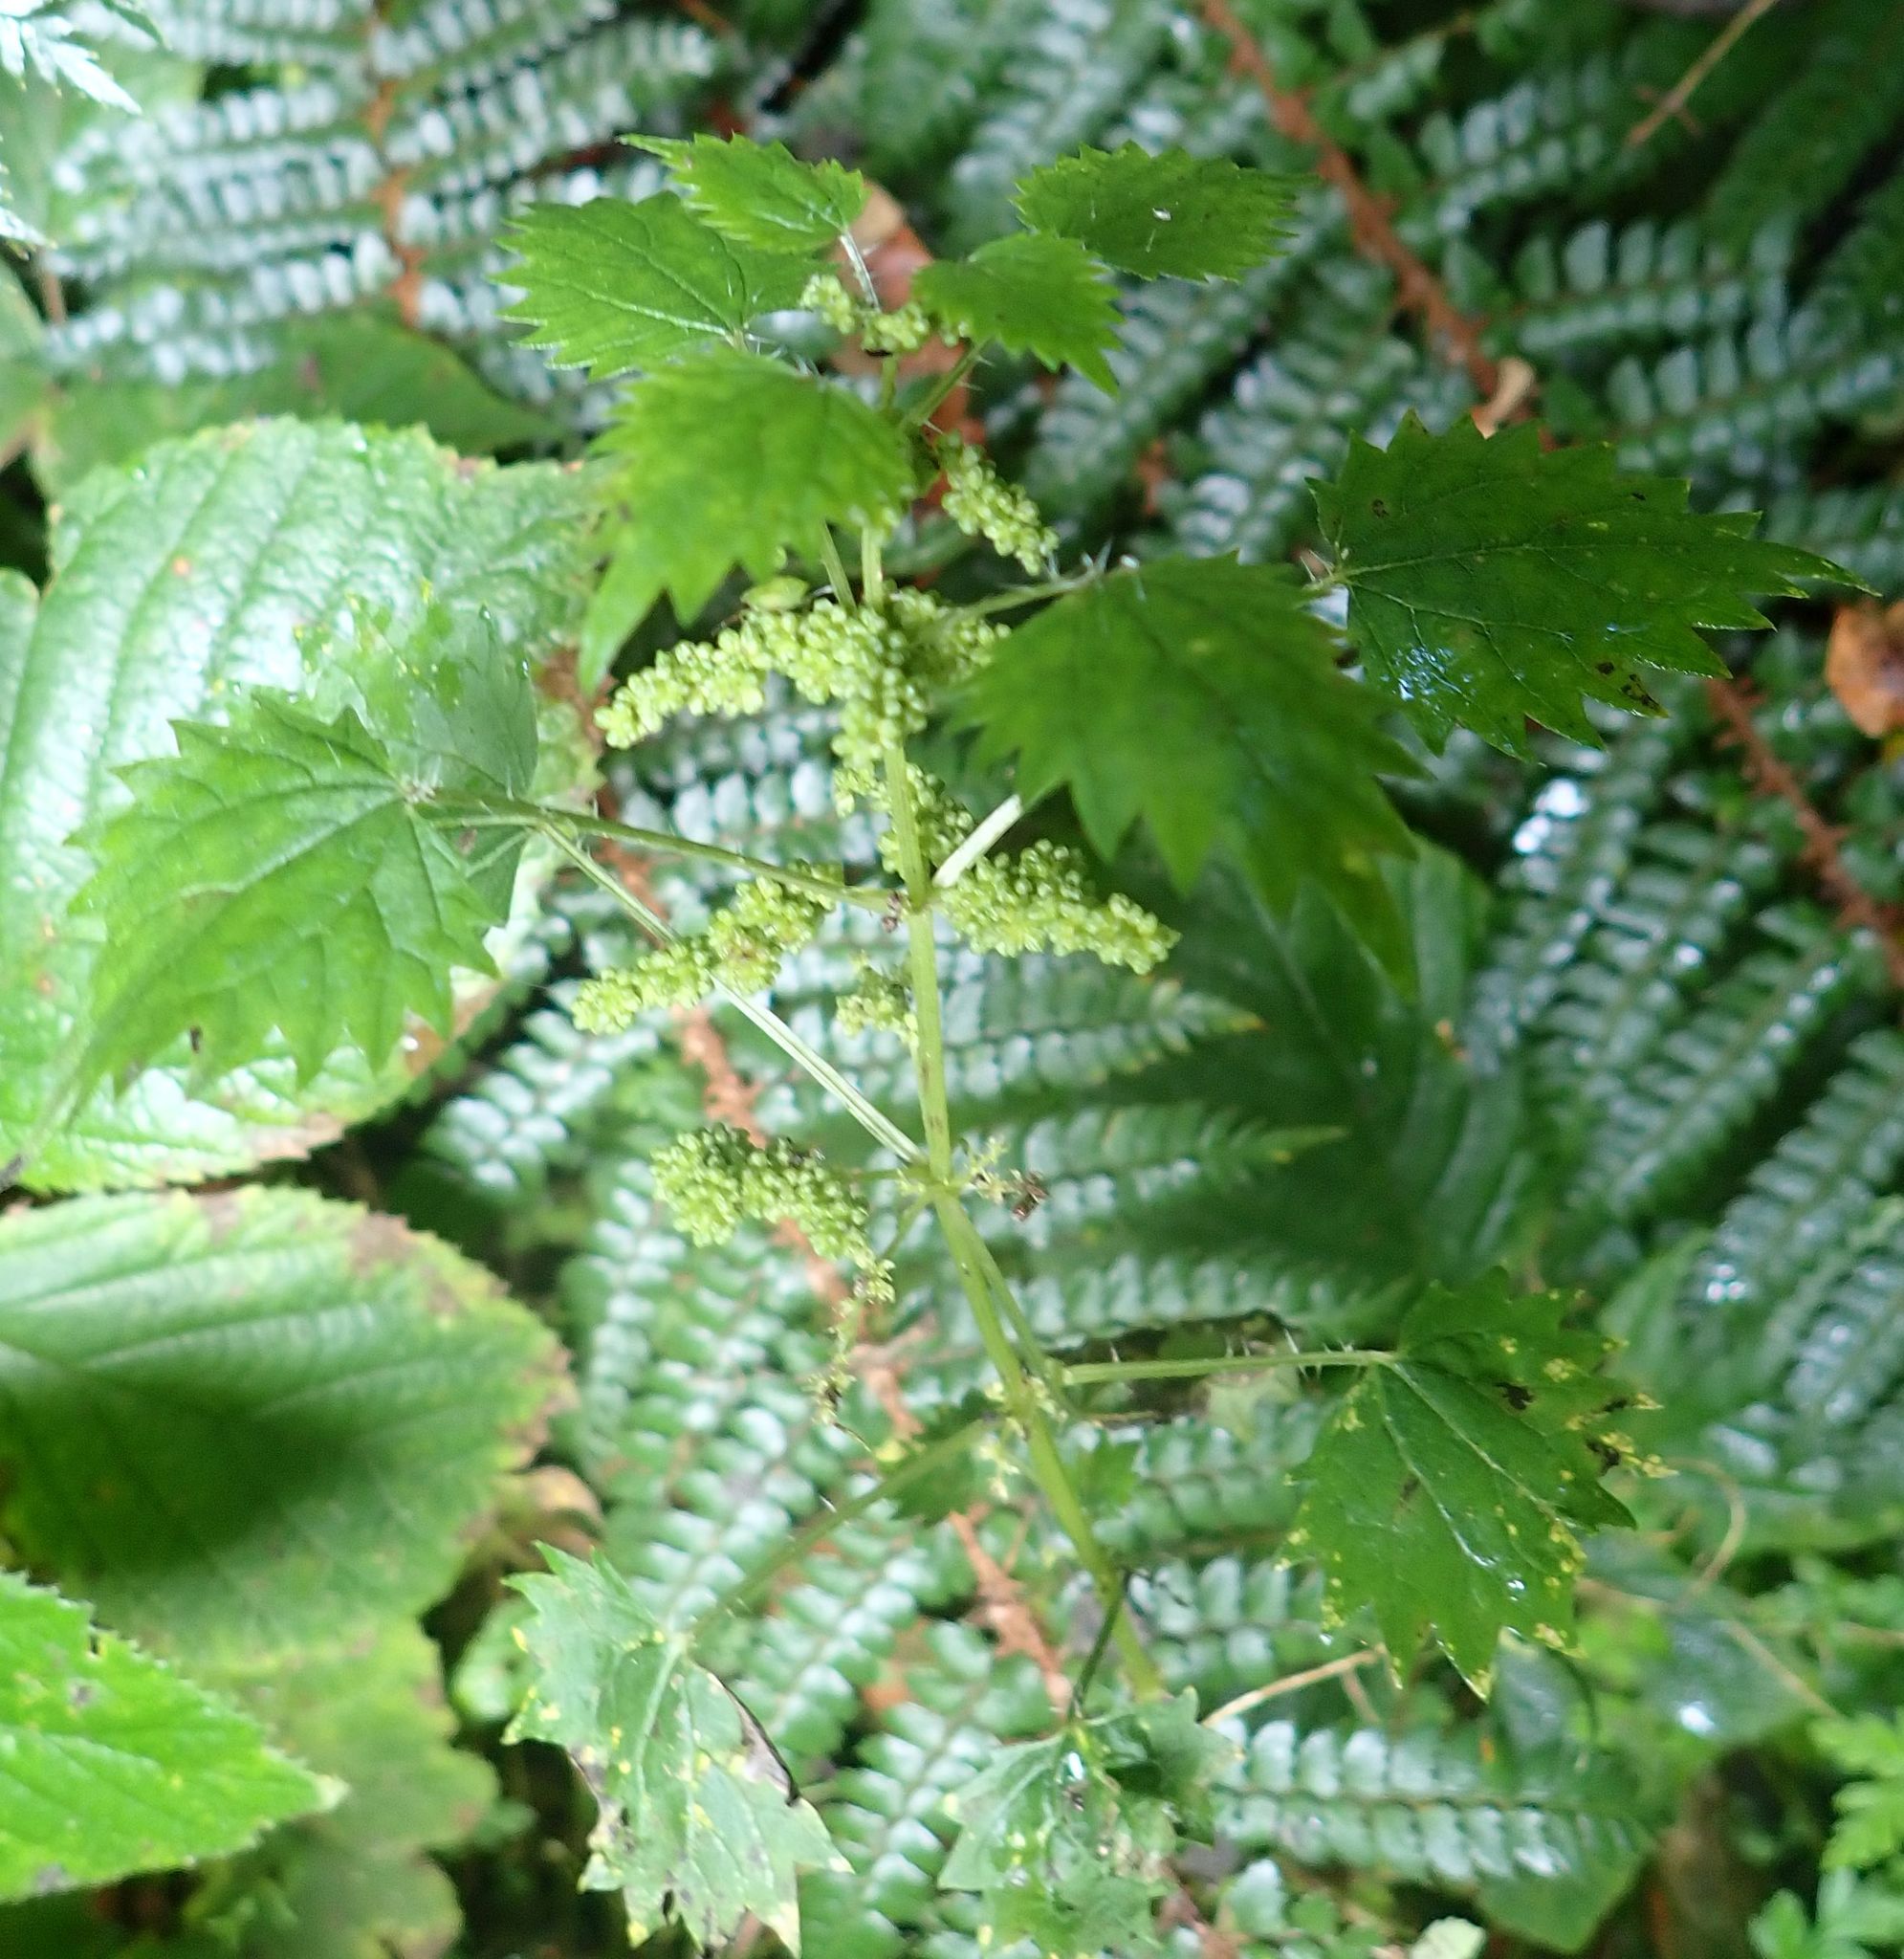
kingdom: Plantae
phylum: Tracheophyta
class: Magnoliopsida
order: Rosales
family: Urticaceae
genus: Urtica
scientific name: Urtica sykesii
